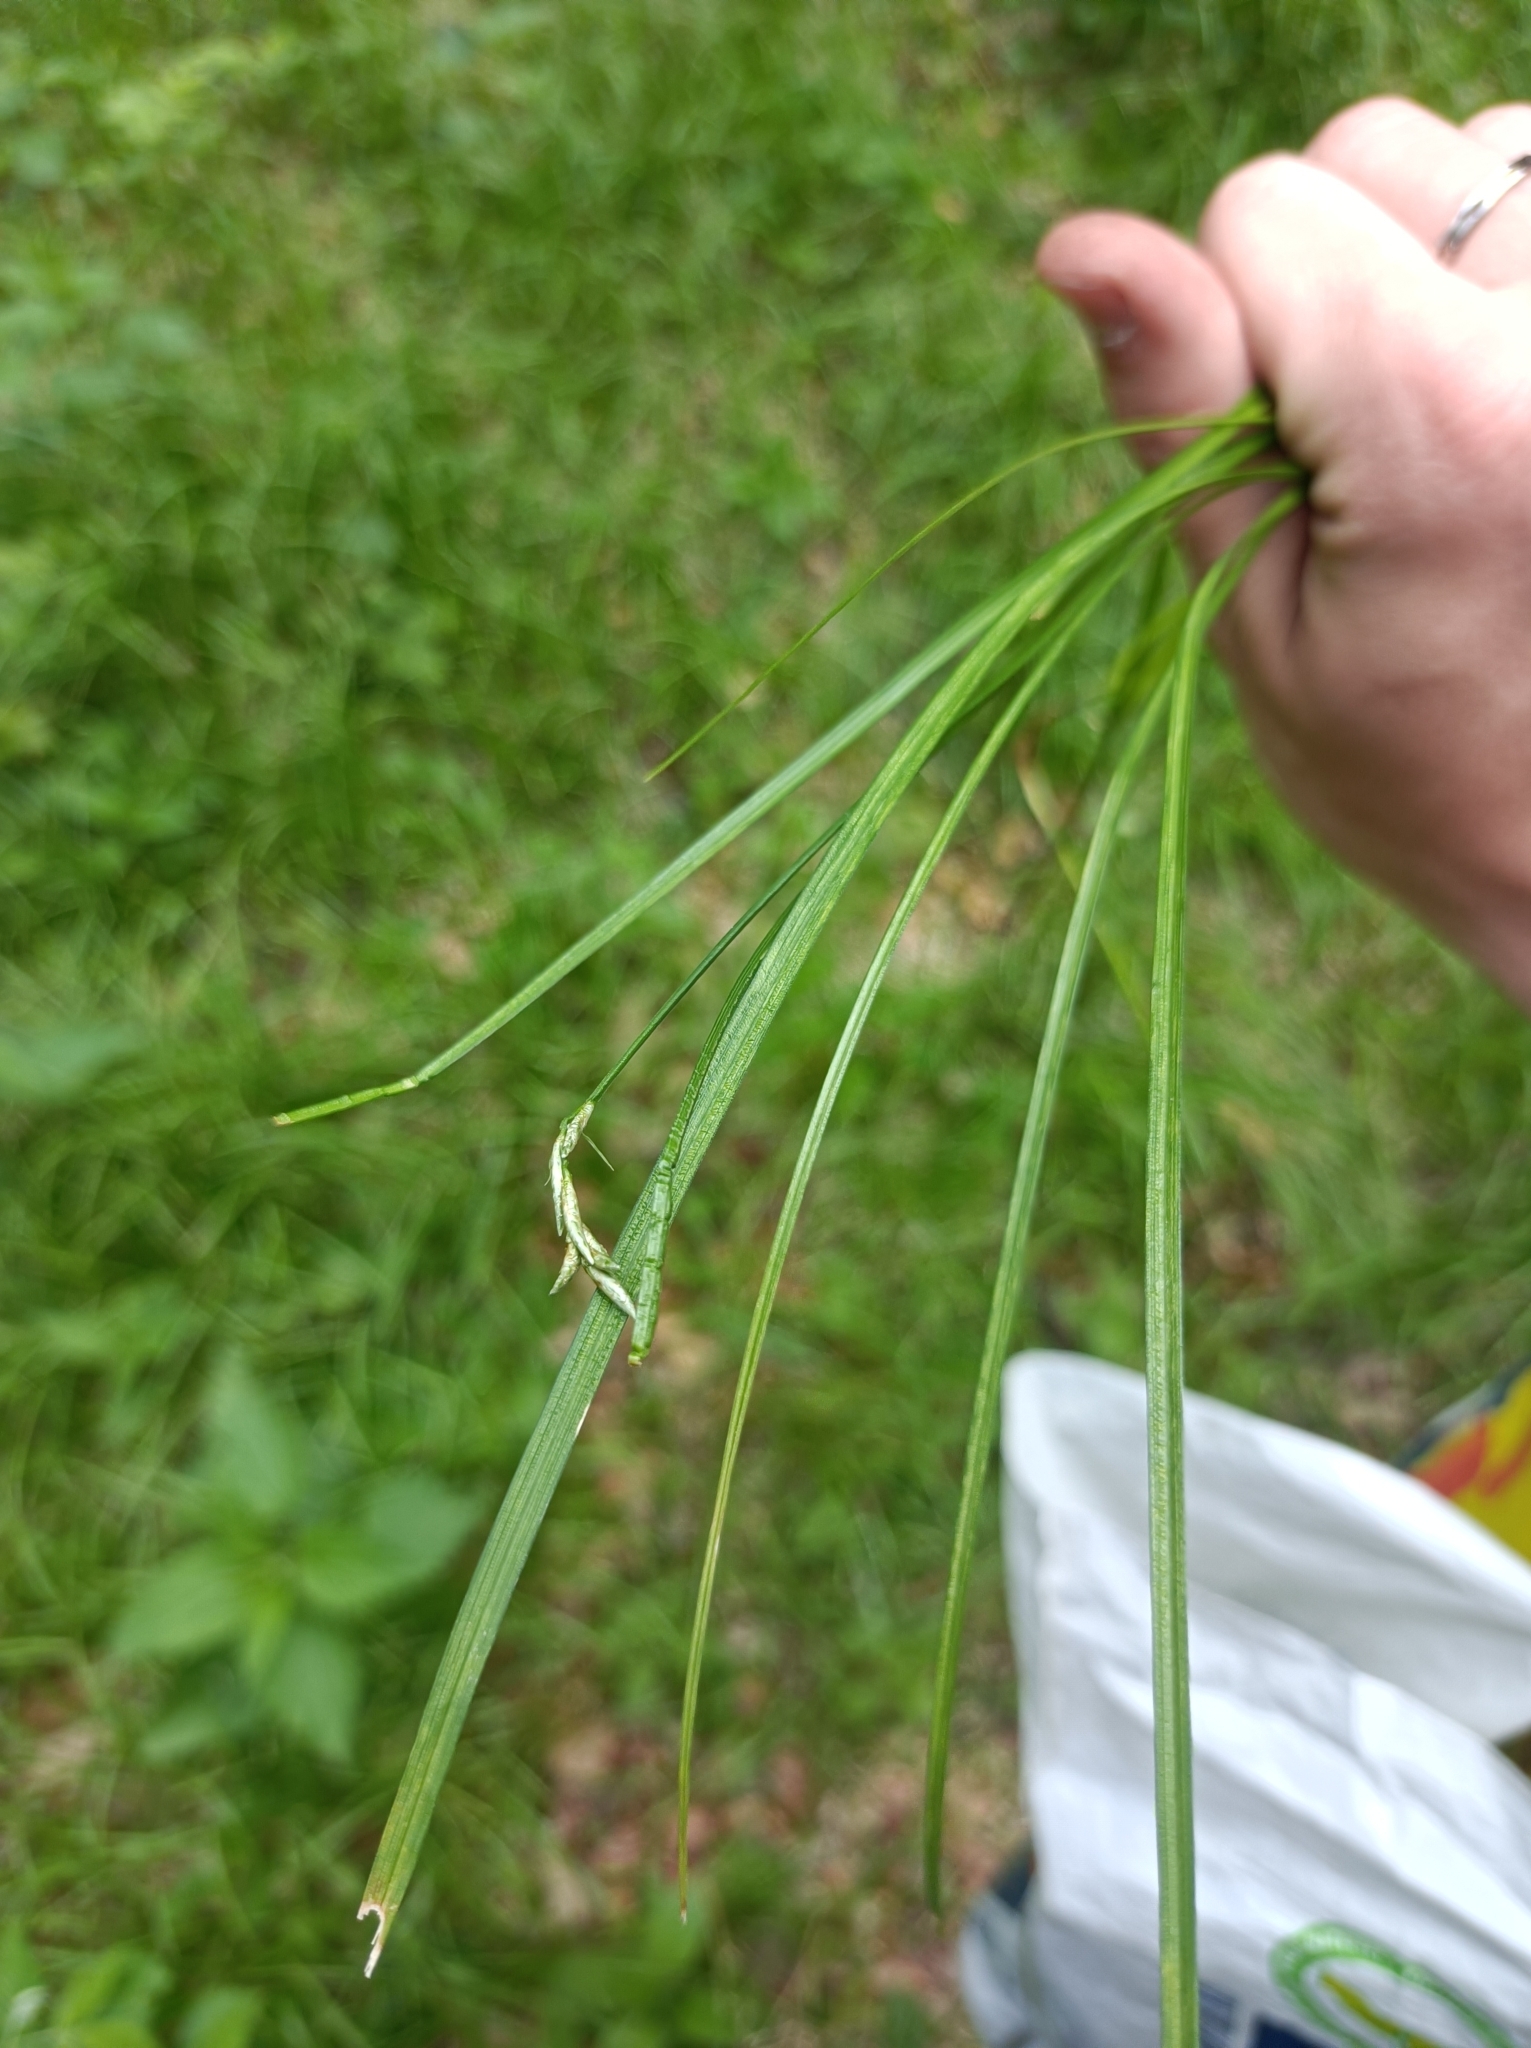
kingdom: Plantae
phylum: Tracheophyta
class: Liliopsida
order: Poales
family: Cyperaceae
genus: Carex
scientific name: Carex brizoides
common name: Quaking-grass sedge
